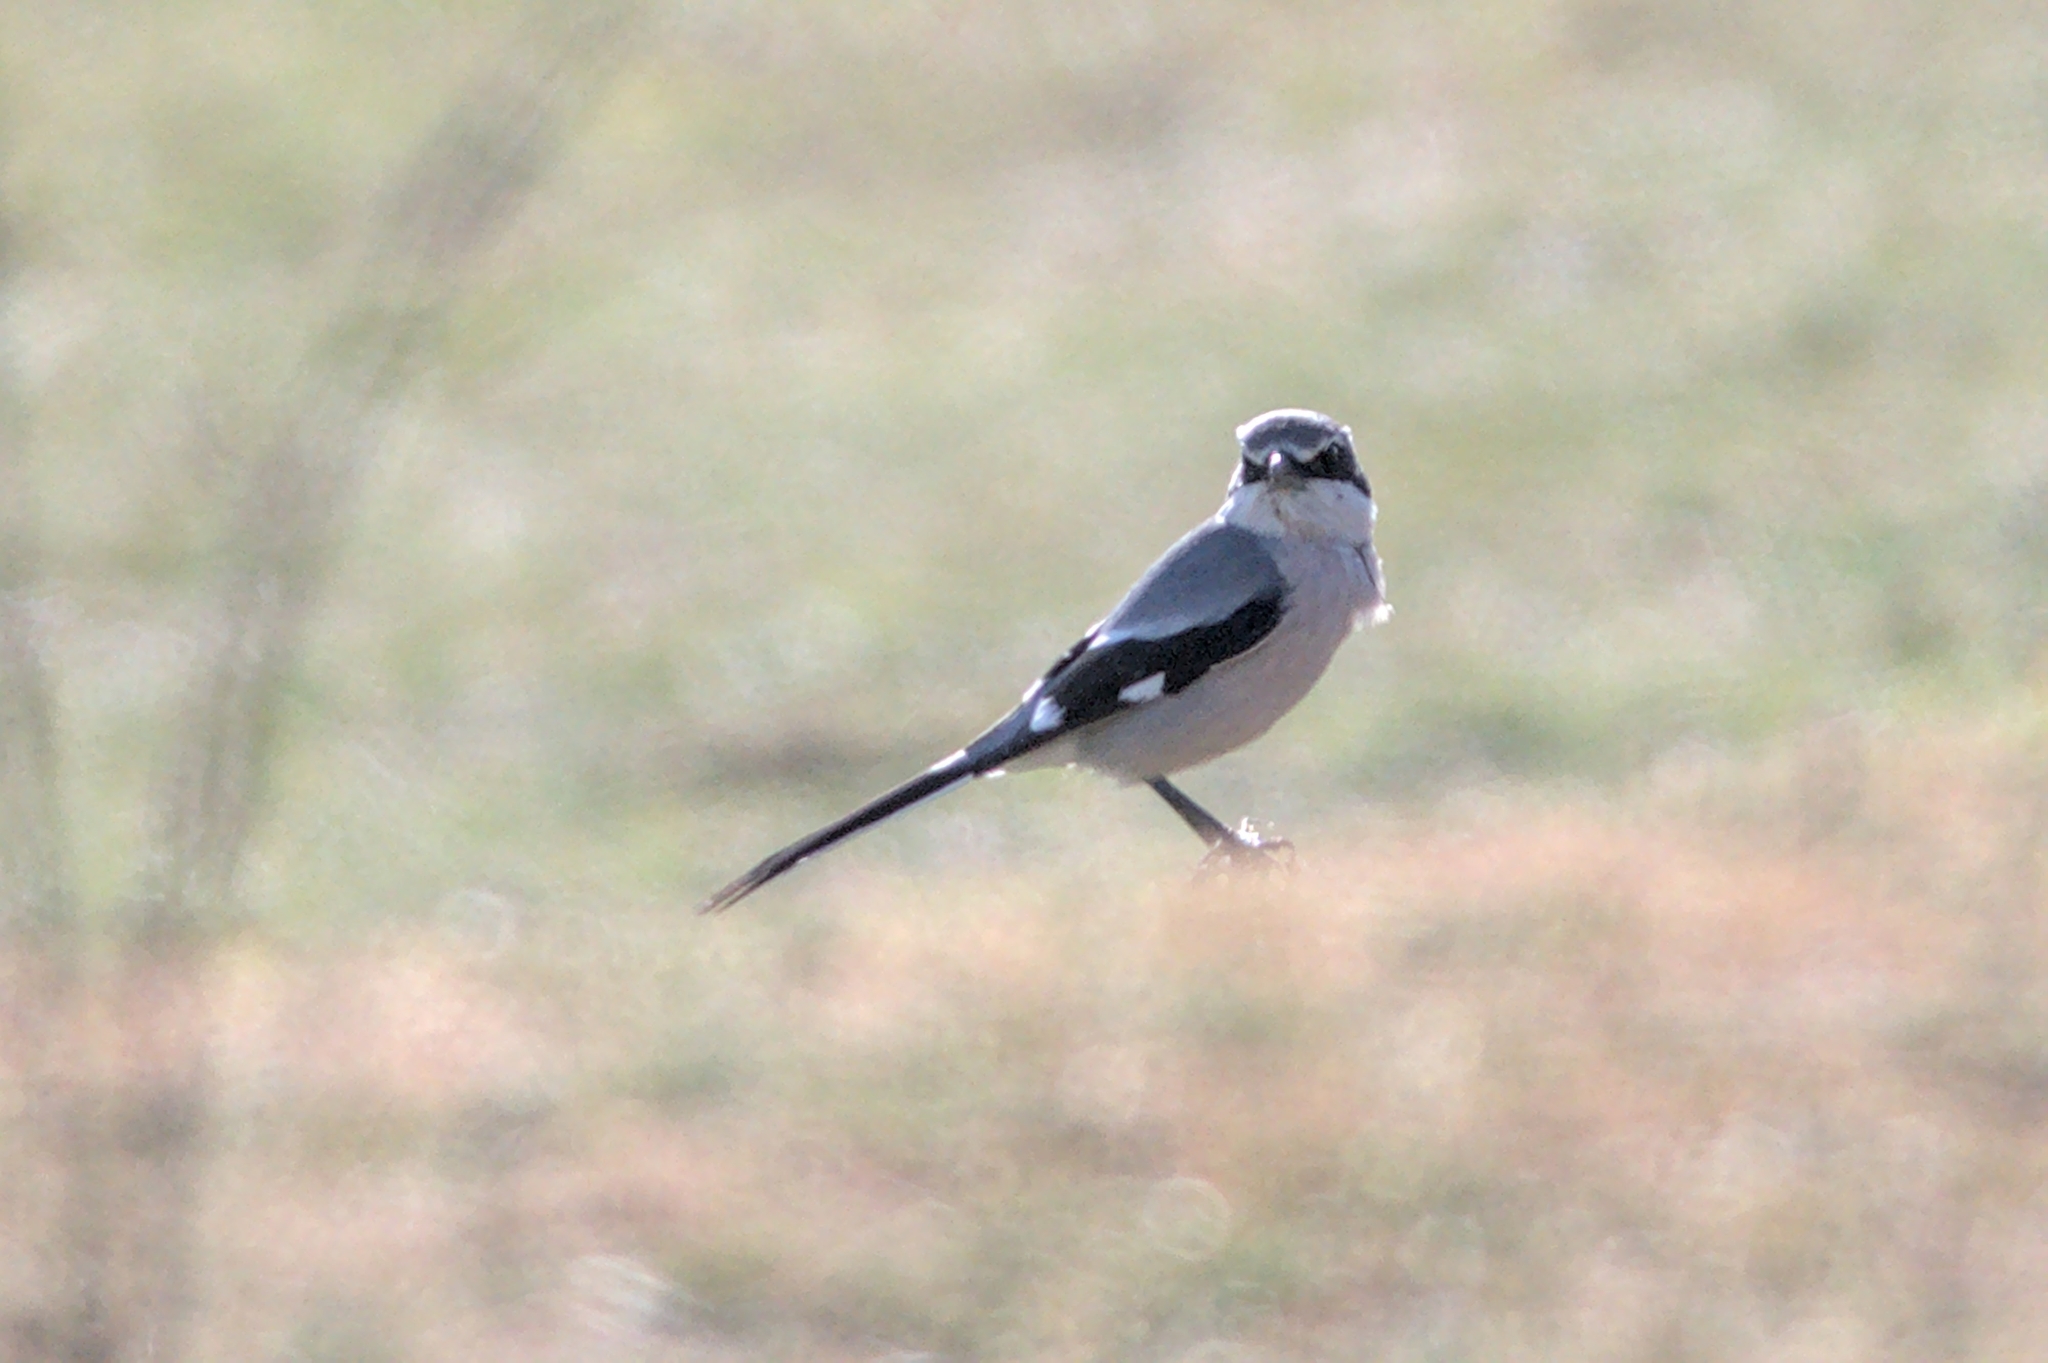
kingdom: Animalia
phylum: Chordata
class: Aves
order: Passeriformes
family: Laniidae
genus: Lanius
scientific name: Lanius meridionalis
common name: Iberian grey shrike
